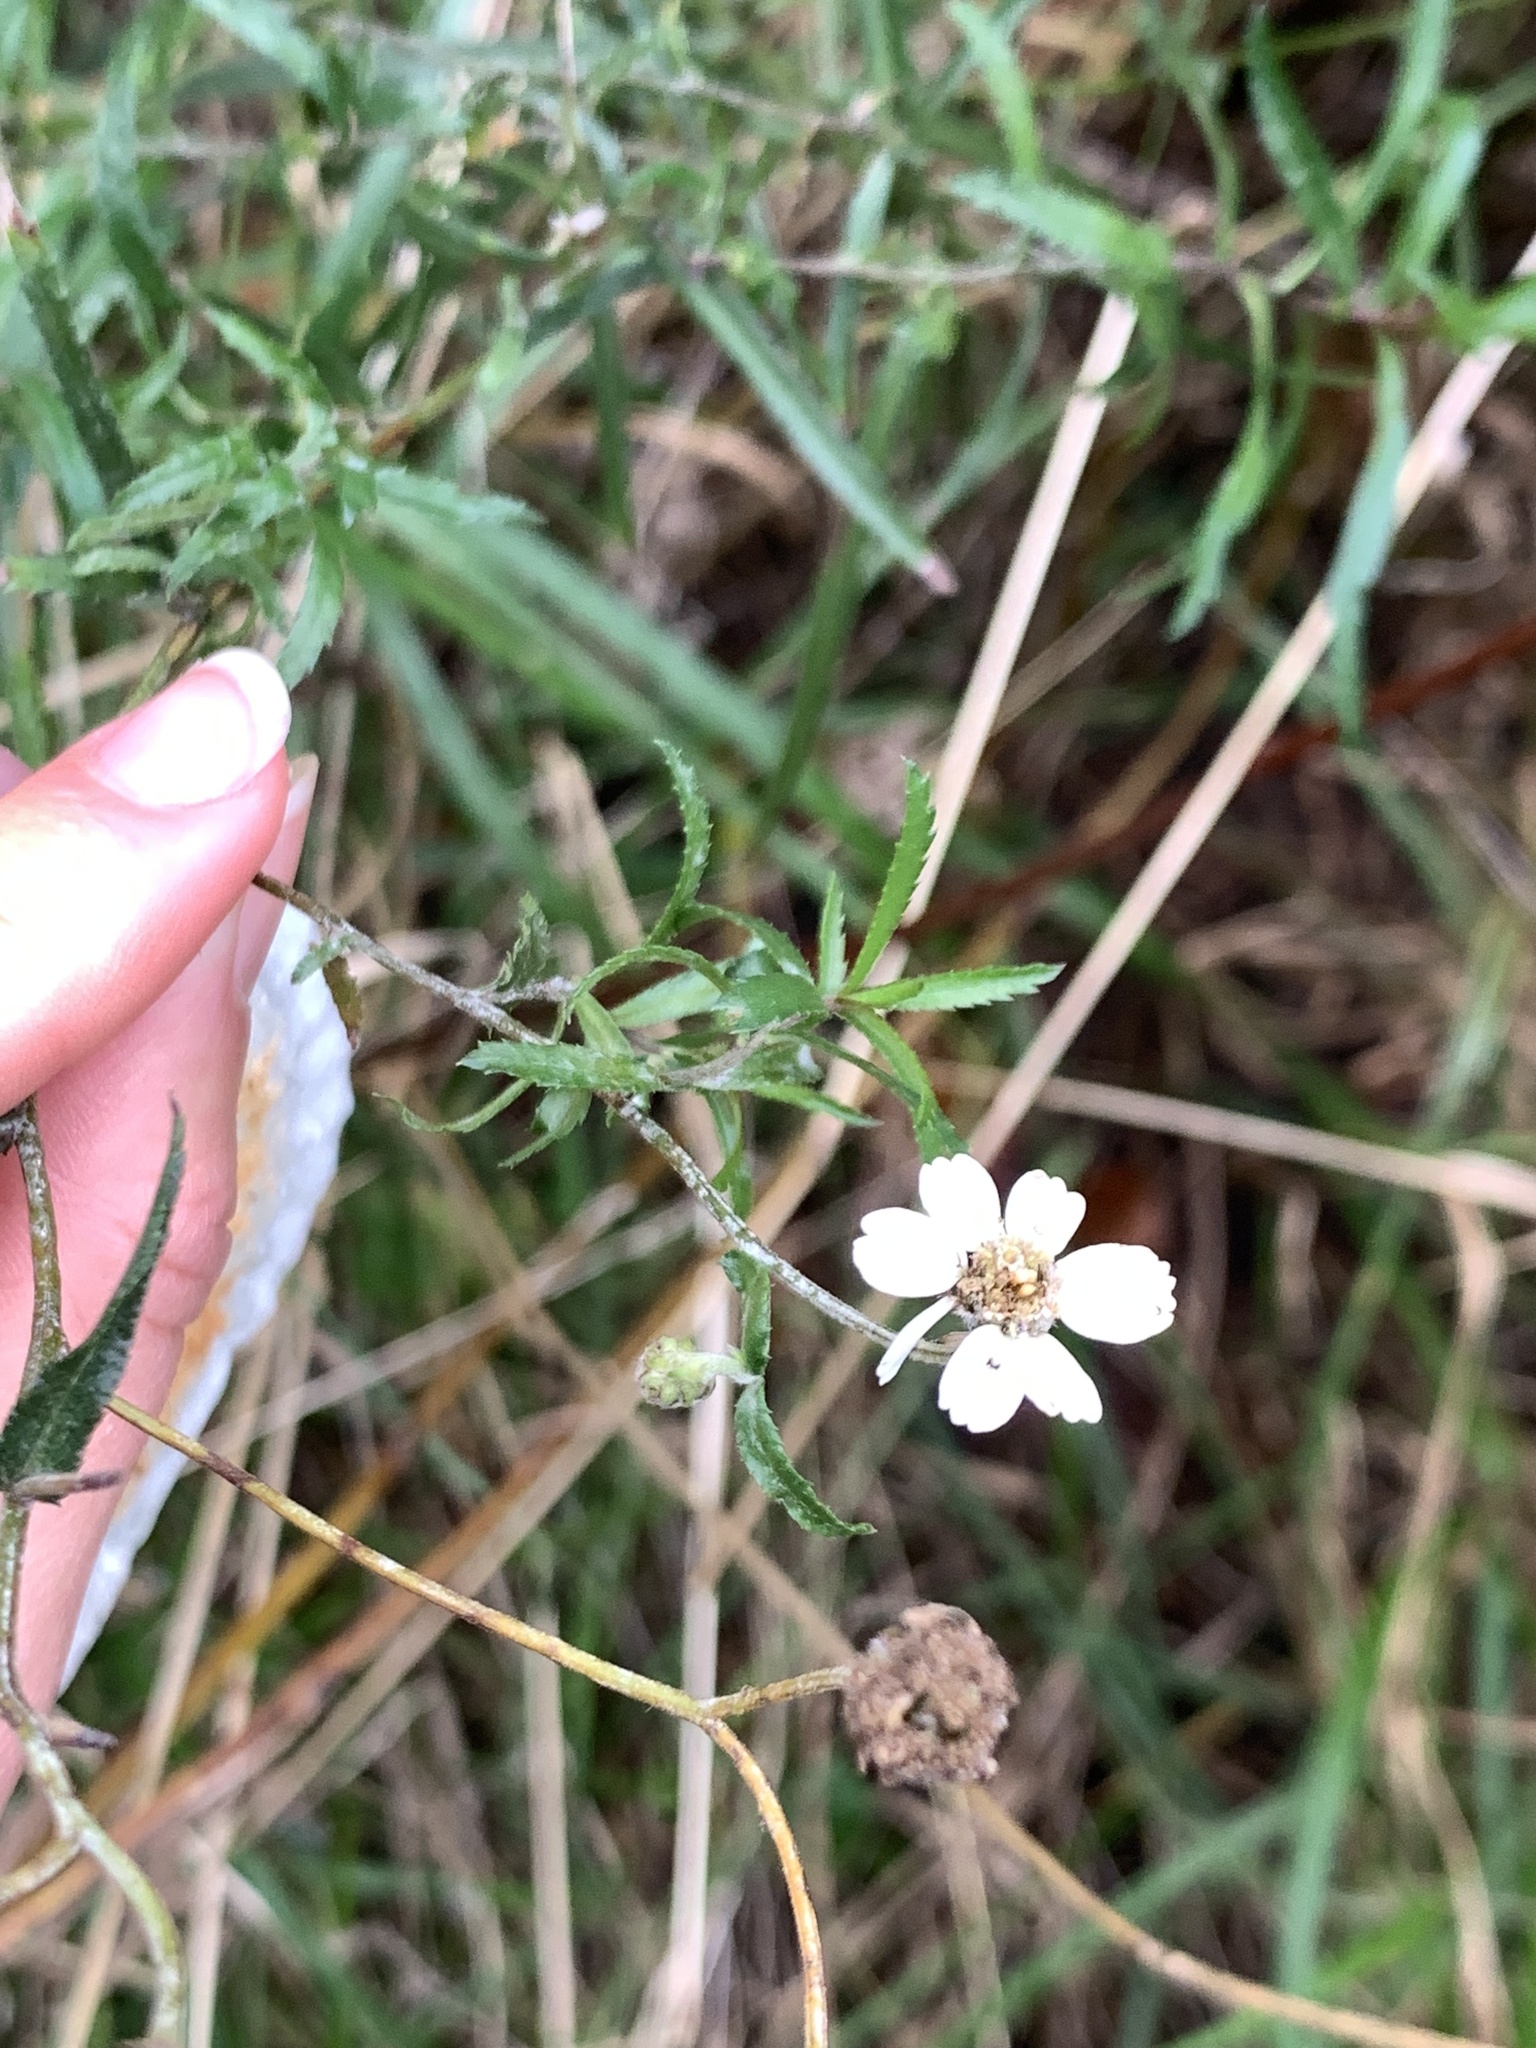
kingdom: Plantae
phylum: Tracheophyta
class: Magnoliopsida
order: Asterales
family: Asteraceae
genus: Achillea
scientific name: Achillea ptarmica
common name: Sneezeweed
